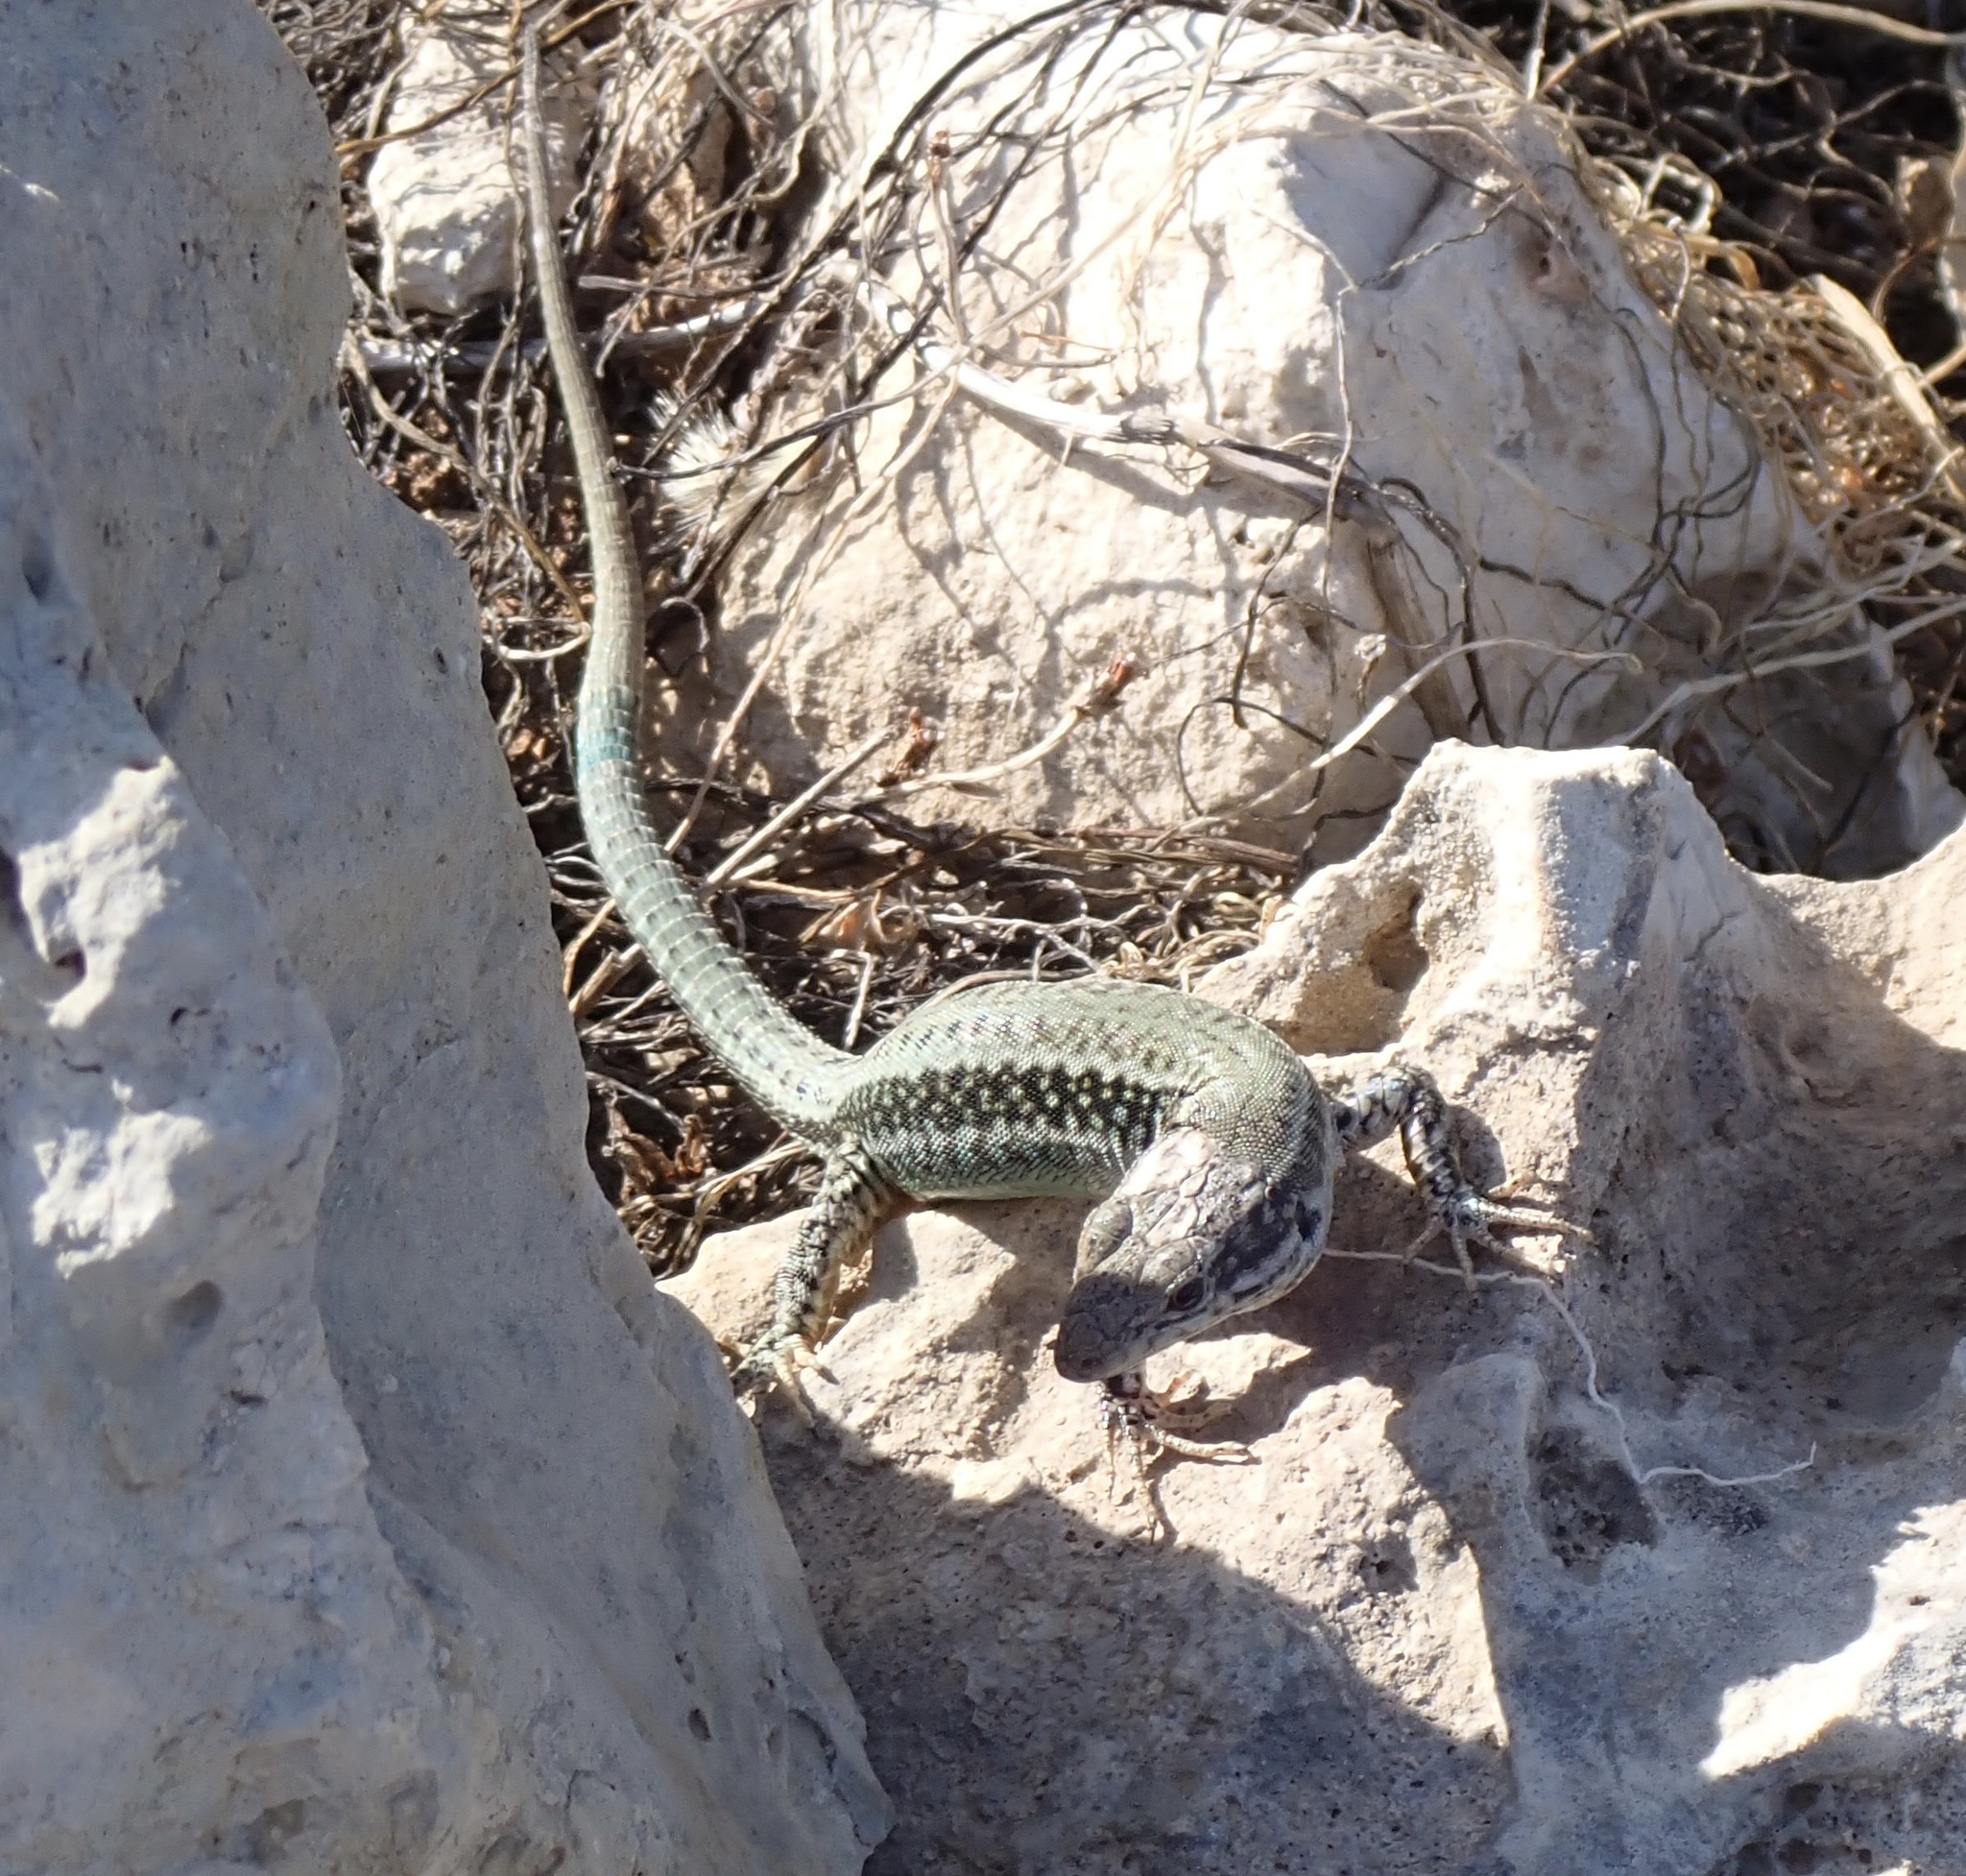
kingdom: Animalia
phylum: Chordata
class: Squamata
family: Lacertidae
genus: Podarcis
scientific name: Podarcis cretensis
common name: Cretan wall lizard
